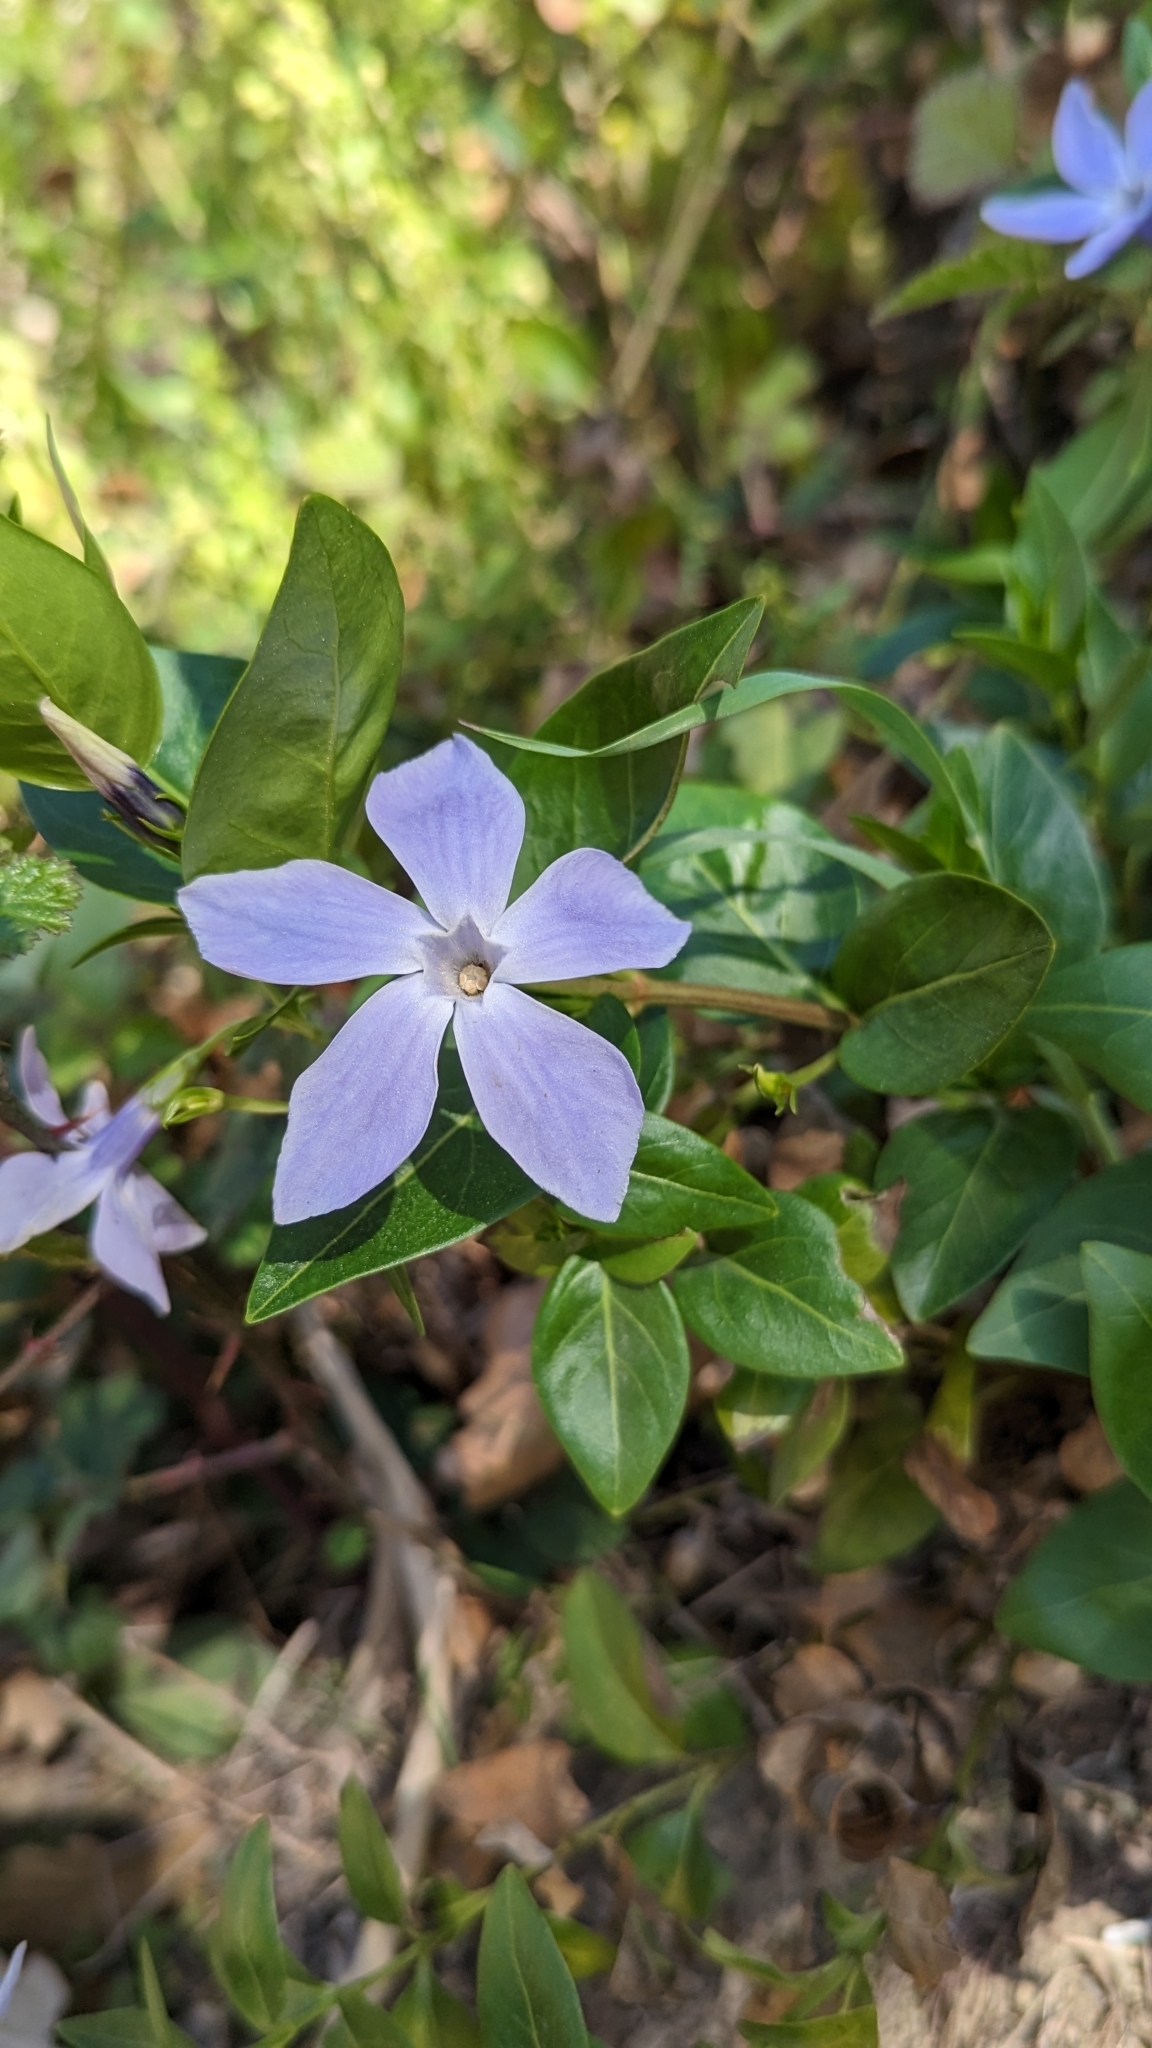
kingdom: Plantae
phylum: Tracheophyta
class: Magnoliopsida
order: Gentianales
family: Apocynaceae
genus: Vinca
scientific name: Vinca difformis
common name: Intermediate periwinkle
